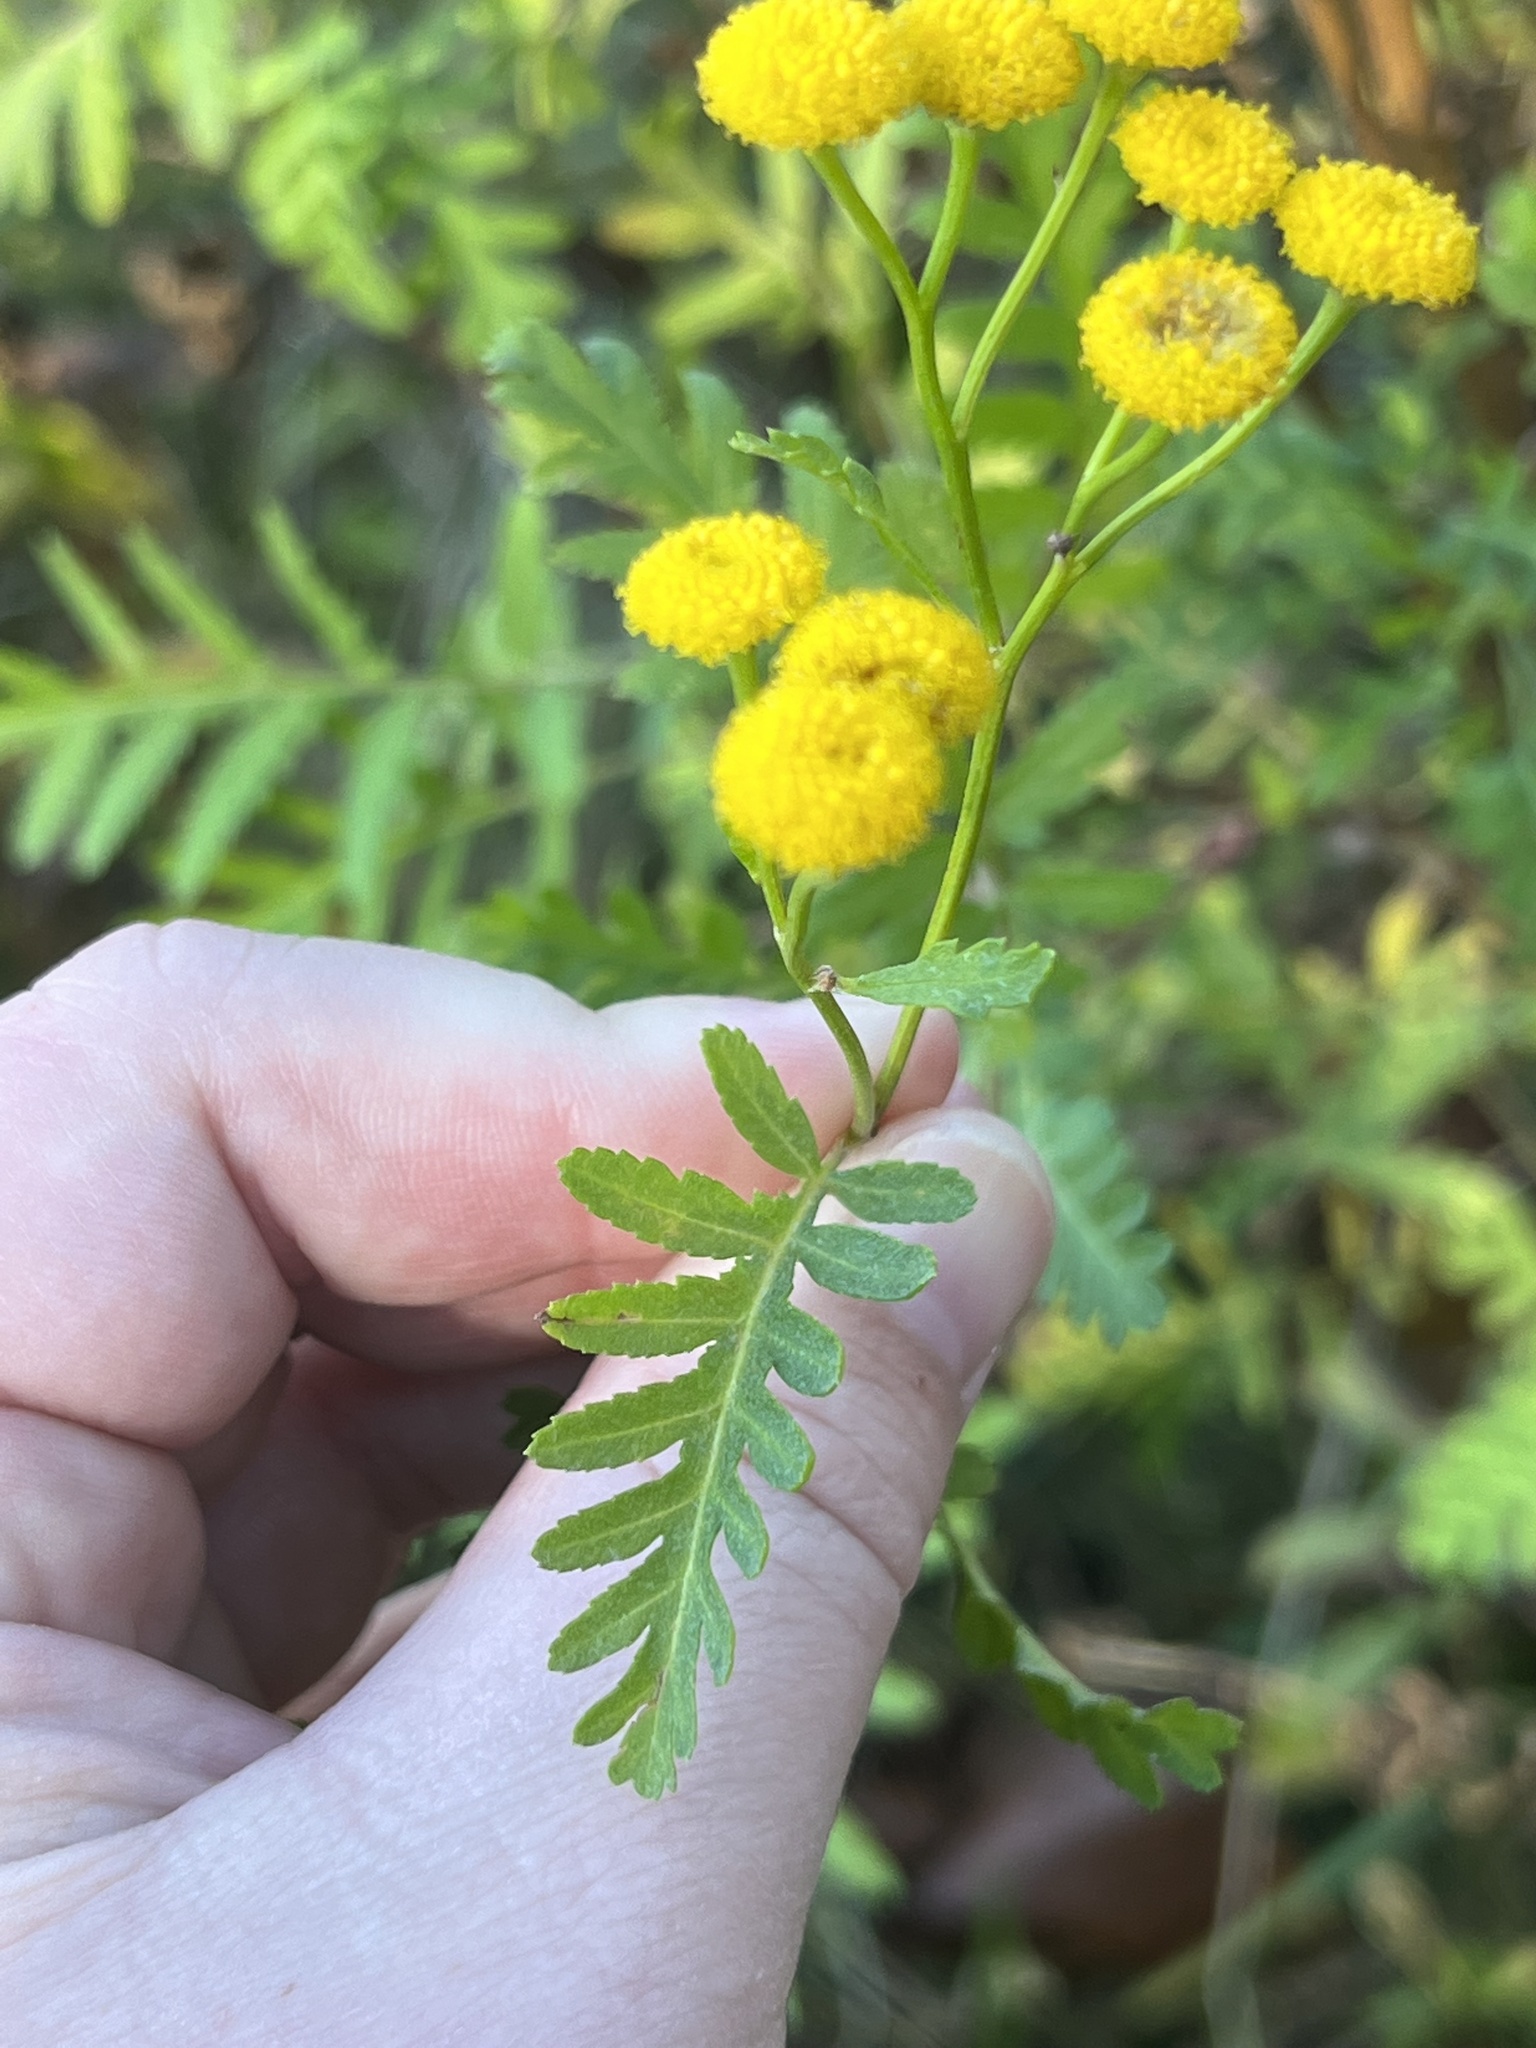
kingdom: Plantae
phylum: Tracheophyta
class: Magnoliopsida
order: Asterales
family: Asteraceae
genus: Tanacetum
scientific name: Tanacetum vulgare
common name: Common tansy
